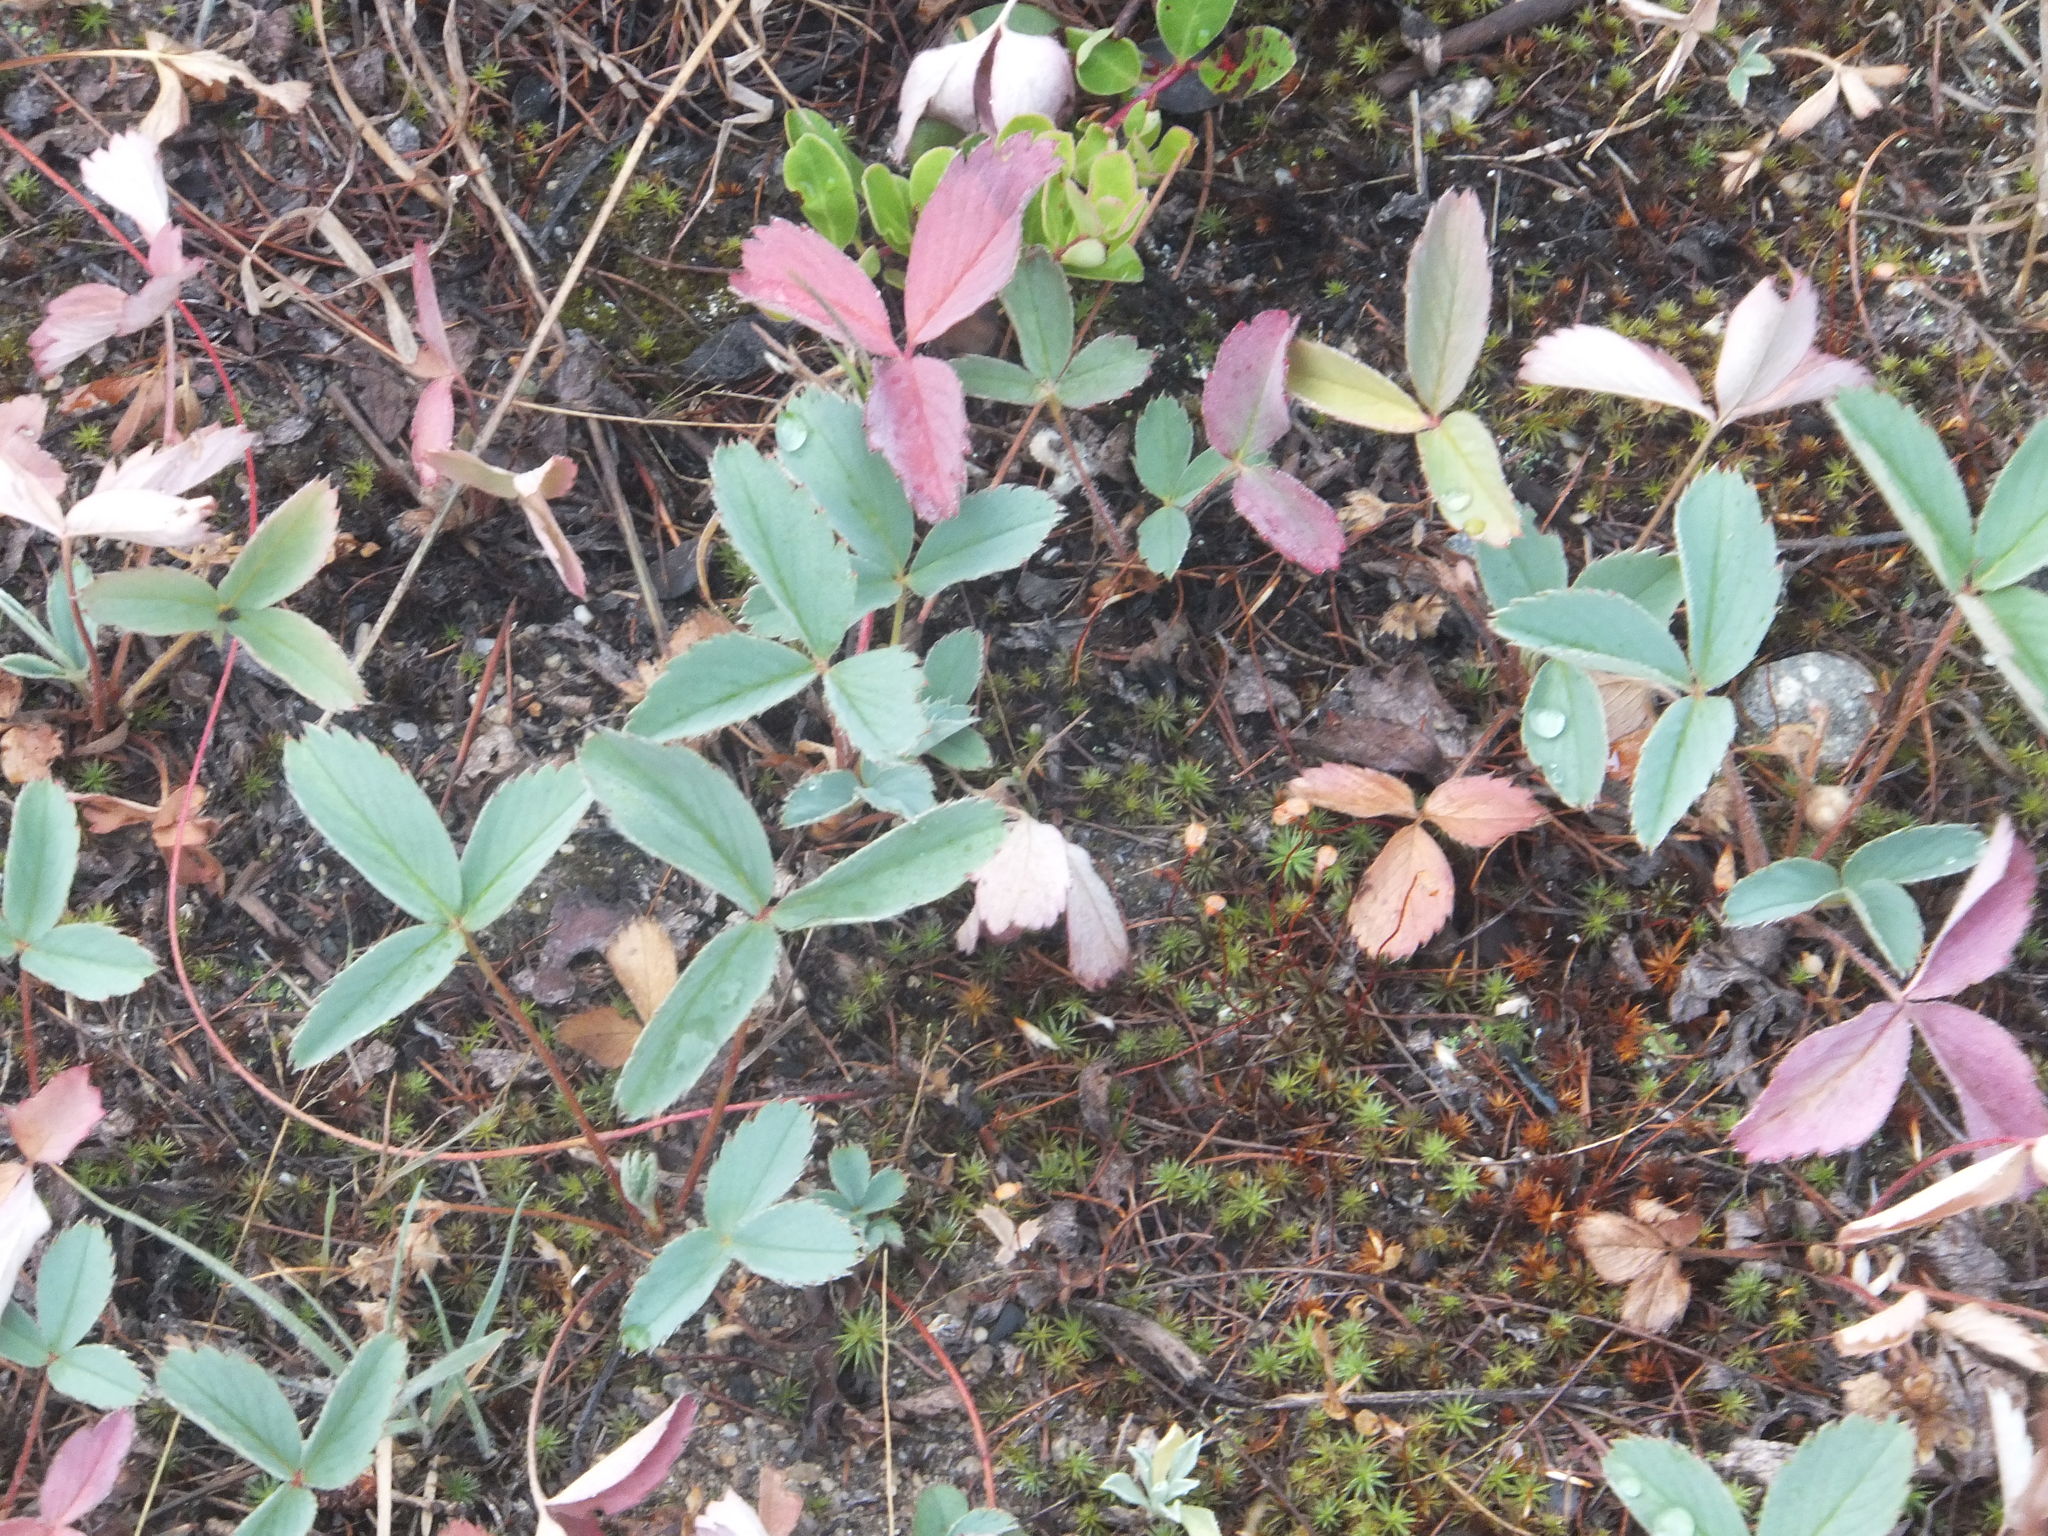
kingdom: Plantae
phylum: Tracheophyta
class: Magnoliopsida
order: Rosales
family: Rosaceae
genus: Fragaria
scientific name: Fragaria virginiana
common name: Thickleaved wild strawberry
